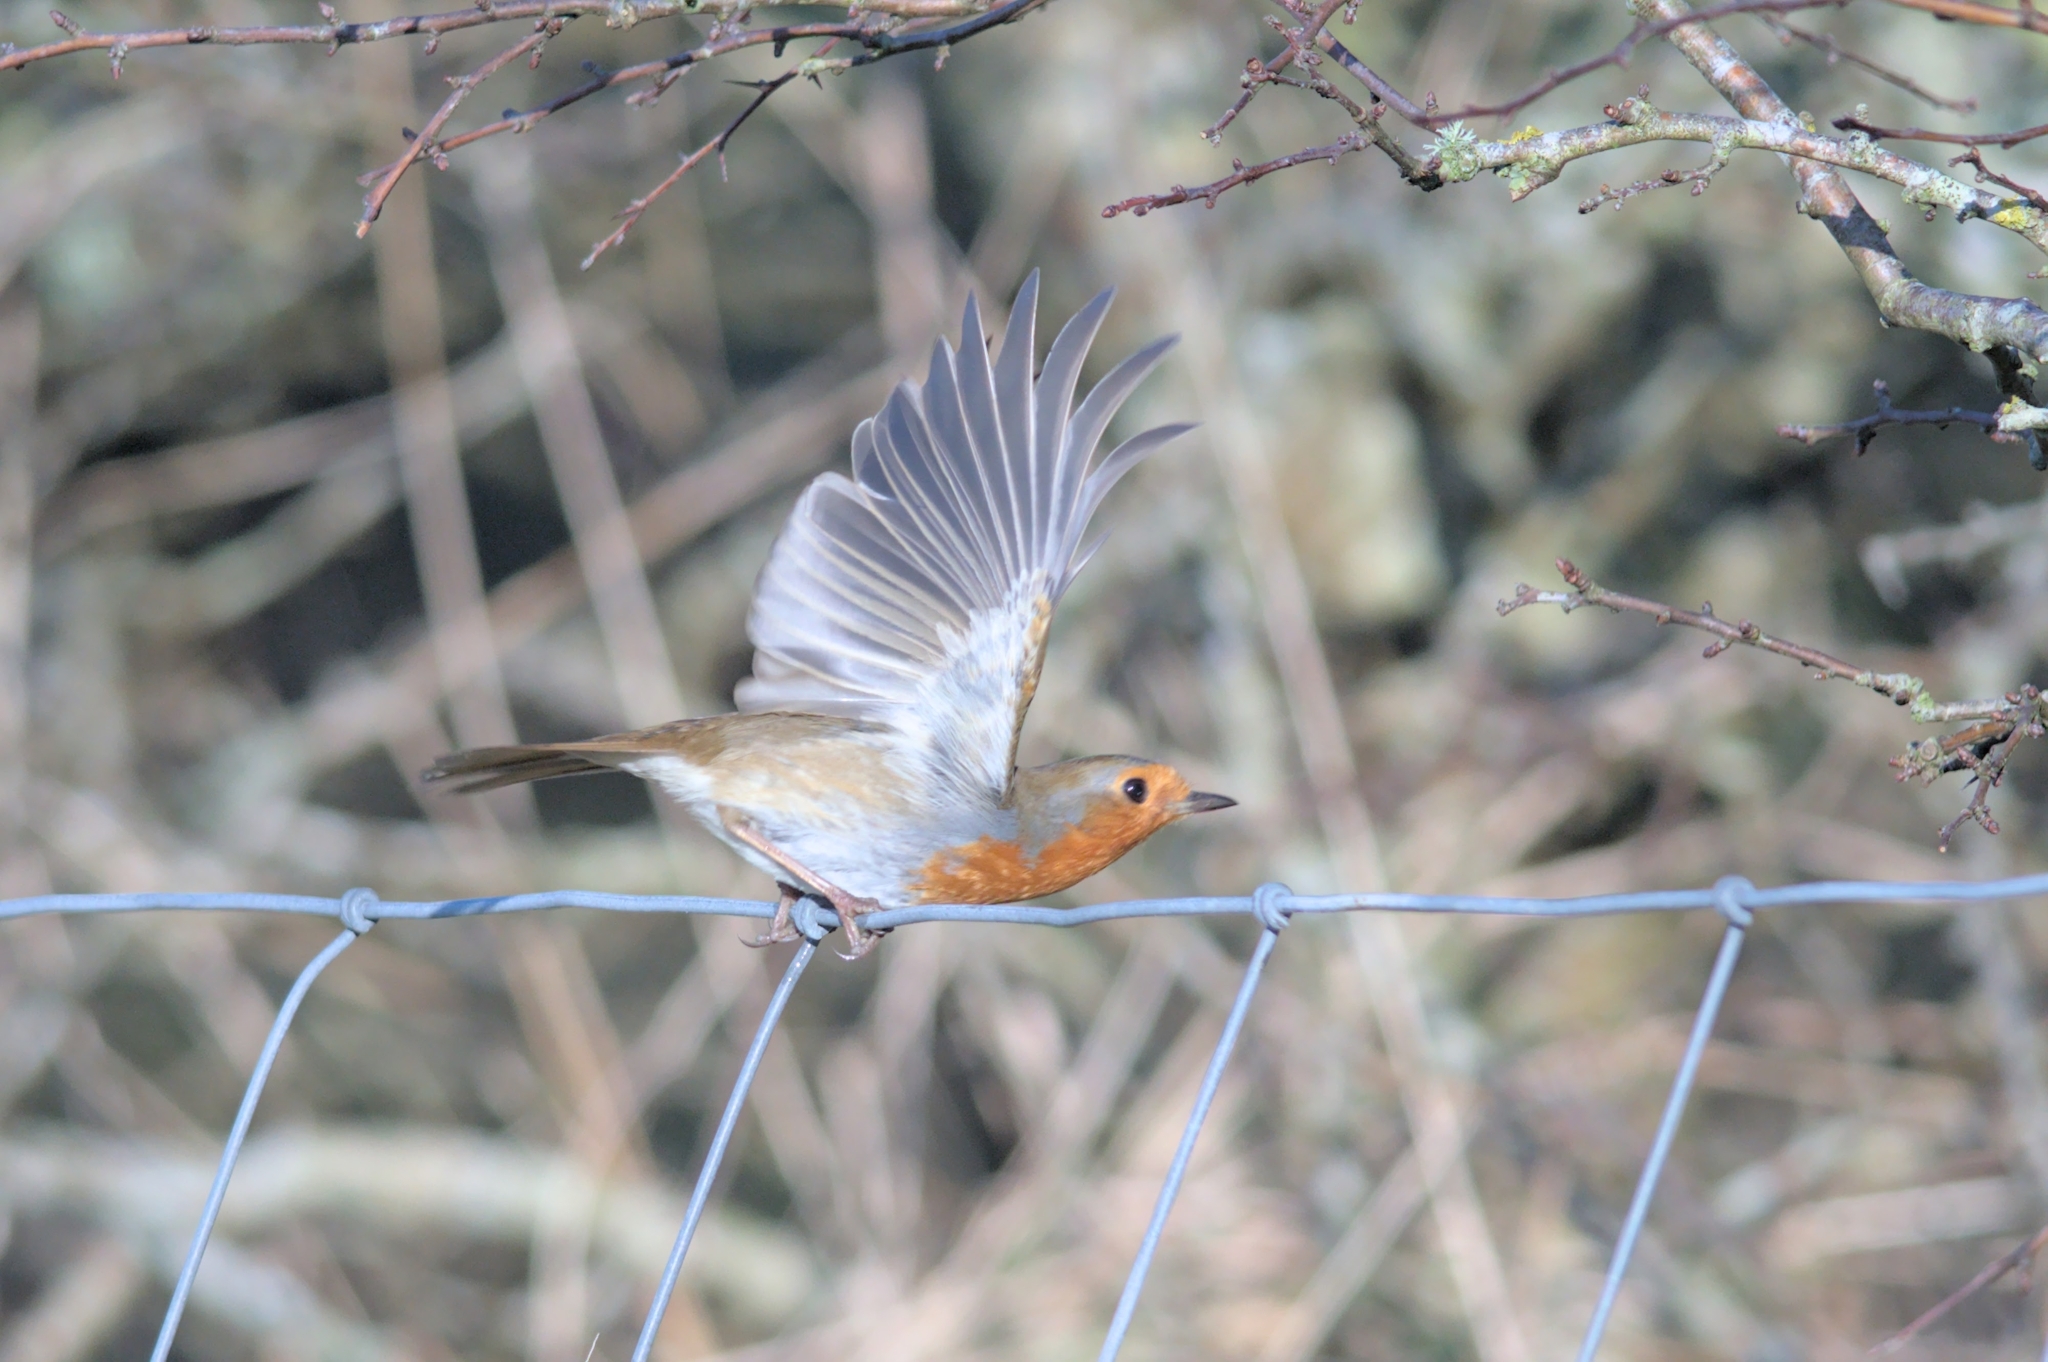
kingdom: Animalia
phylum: Chordata
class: Aves
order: Passeriformes
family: Muscicapidae
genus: Erithacus
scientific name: Erithacus rubecula
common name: European robin
